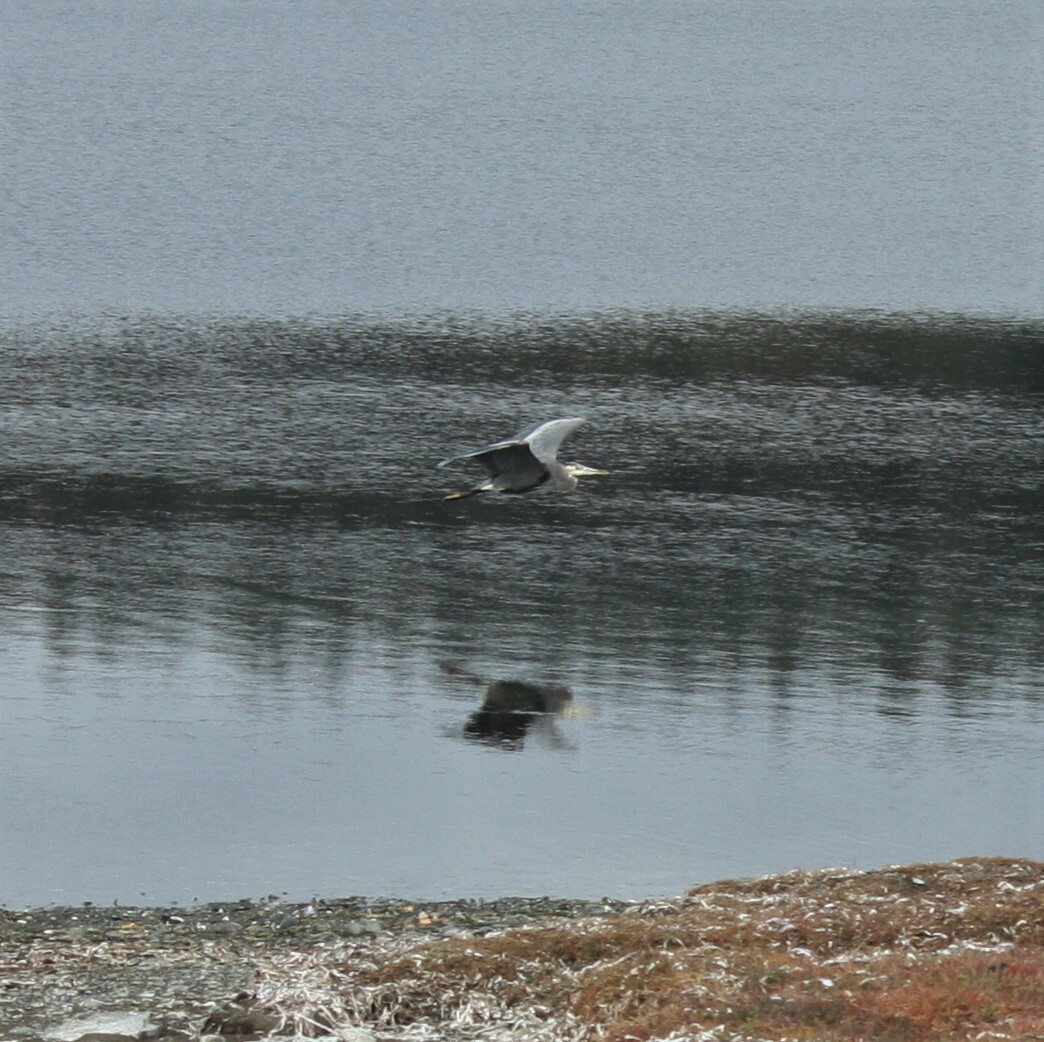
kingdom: Animalia
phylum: Chordata
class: Aves
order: Pelecaniformes
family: Ardeidae
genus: Ardea
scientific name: Ardea herodias
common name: Great blue heron
